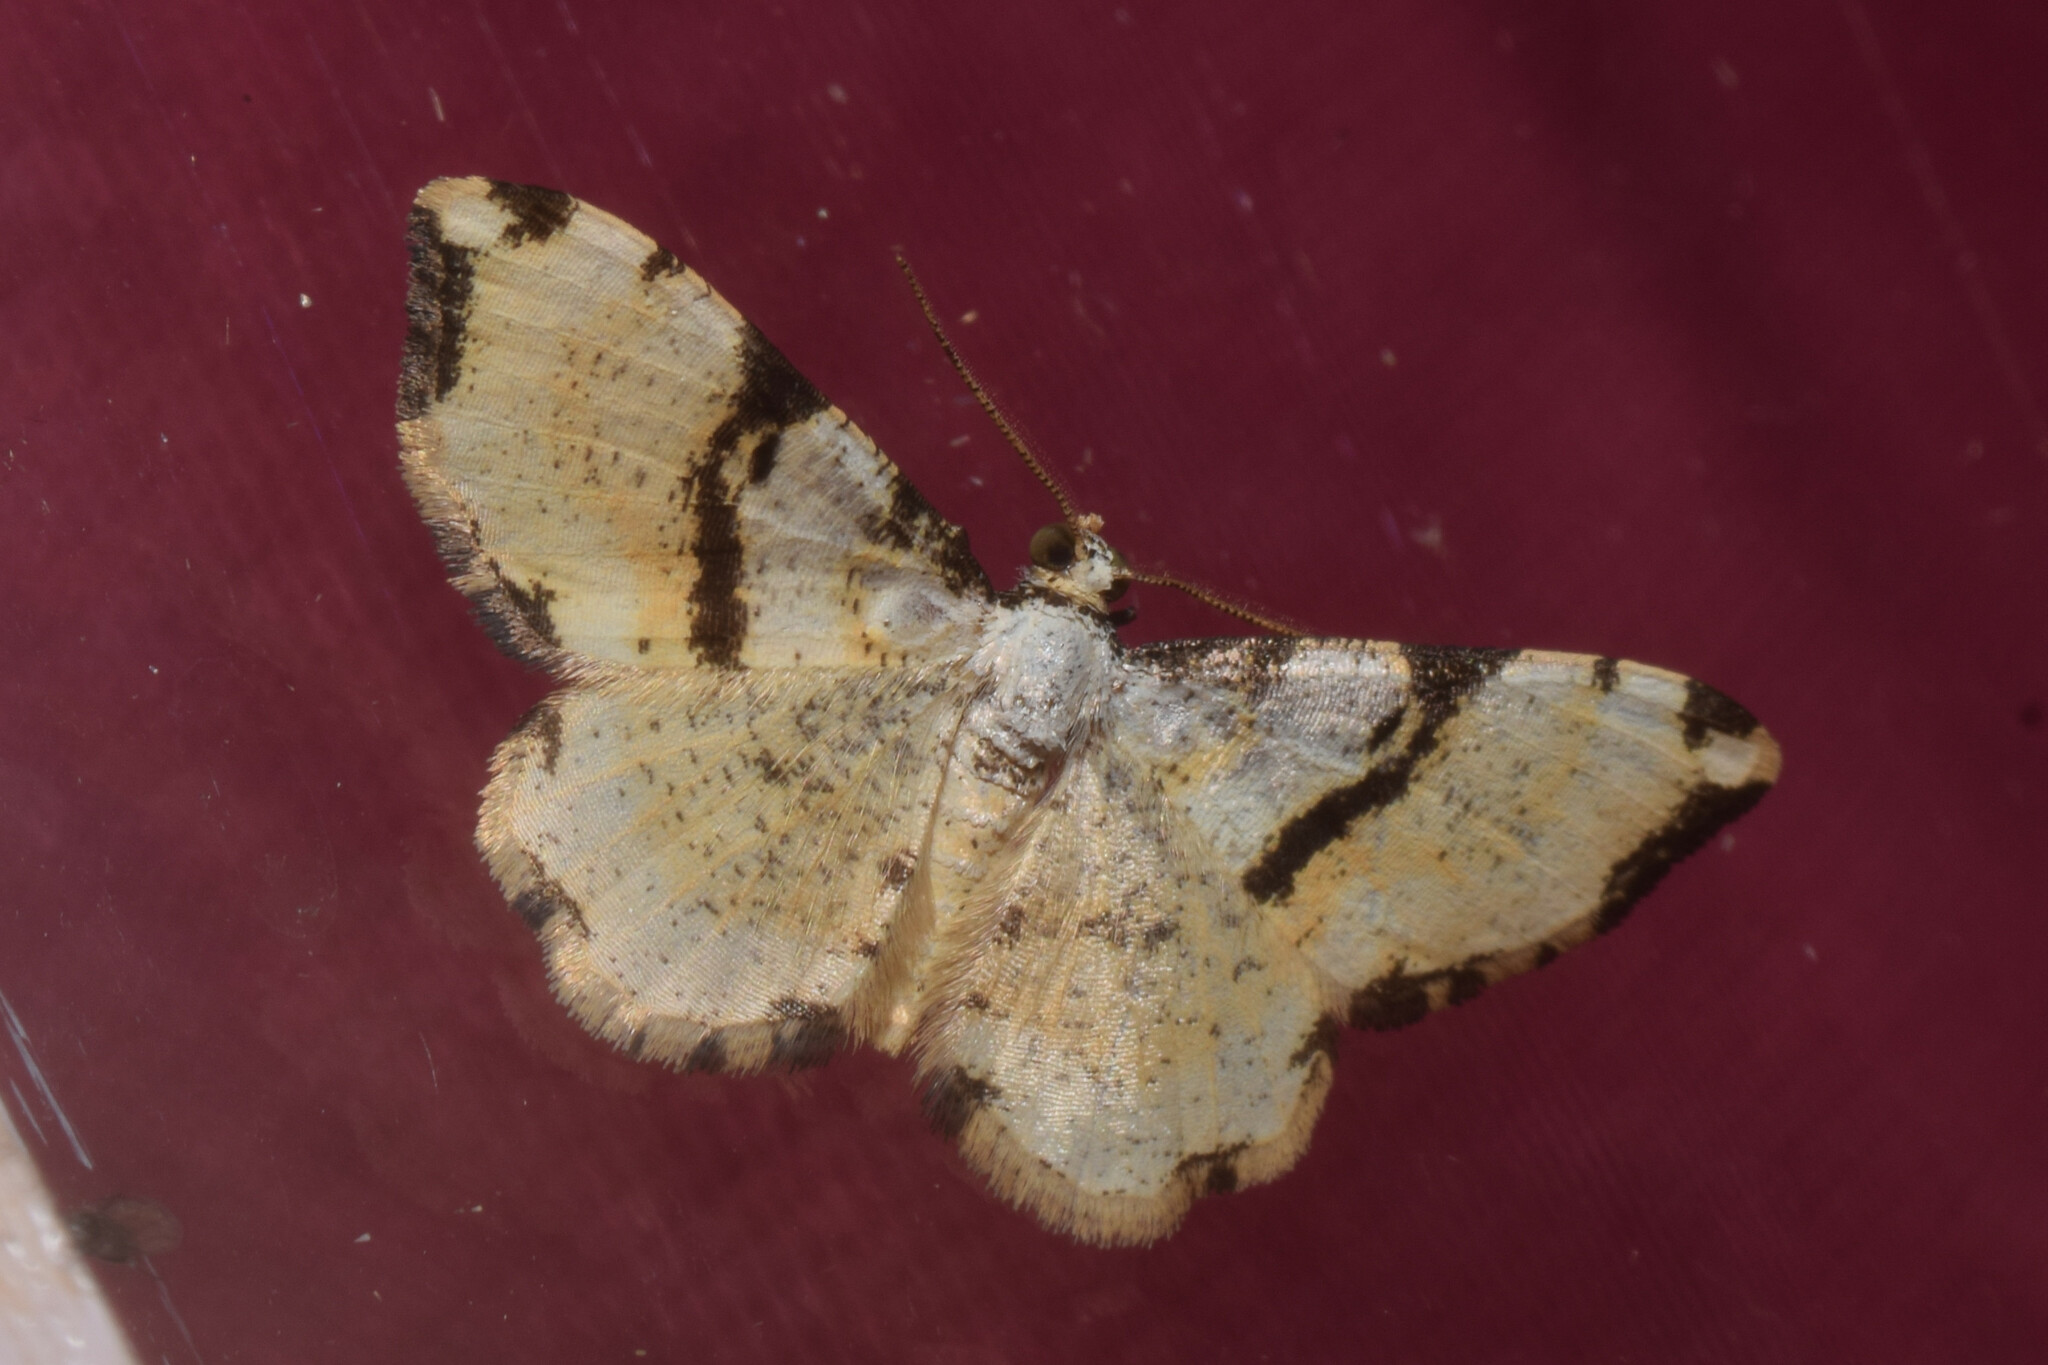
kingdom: Animalia
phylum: Arthropoda
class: Insecta
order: Lepidoptera
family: Geometridae
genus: Monocerotesa
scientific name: Monocerotesa
